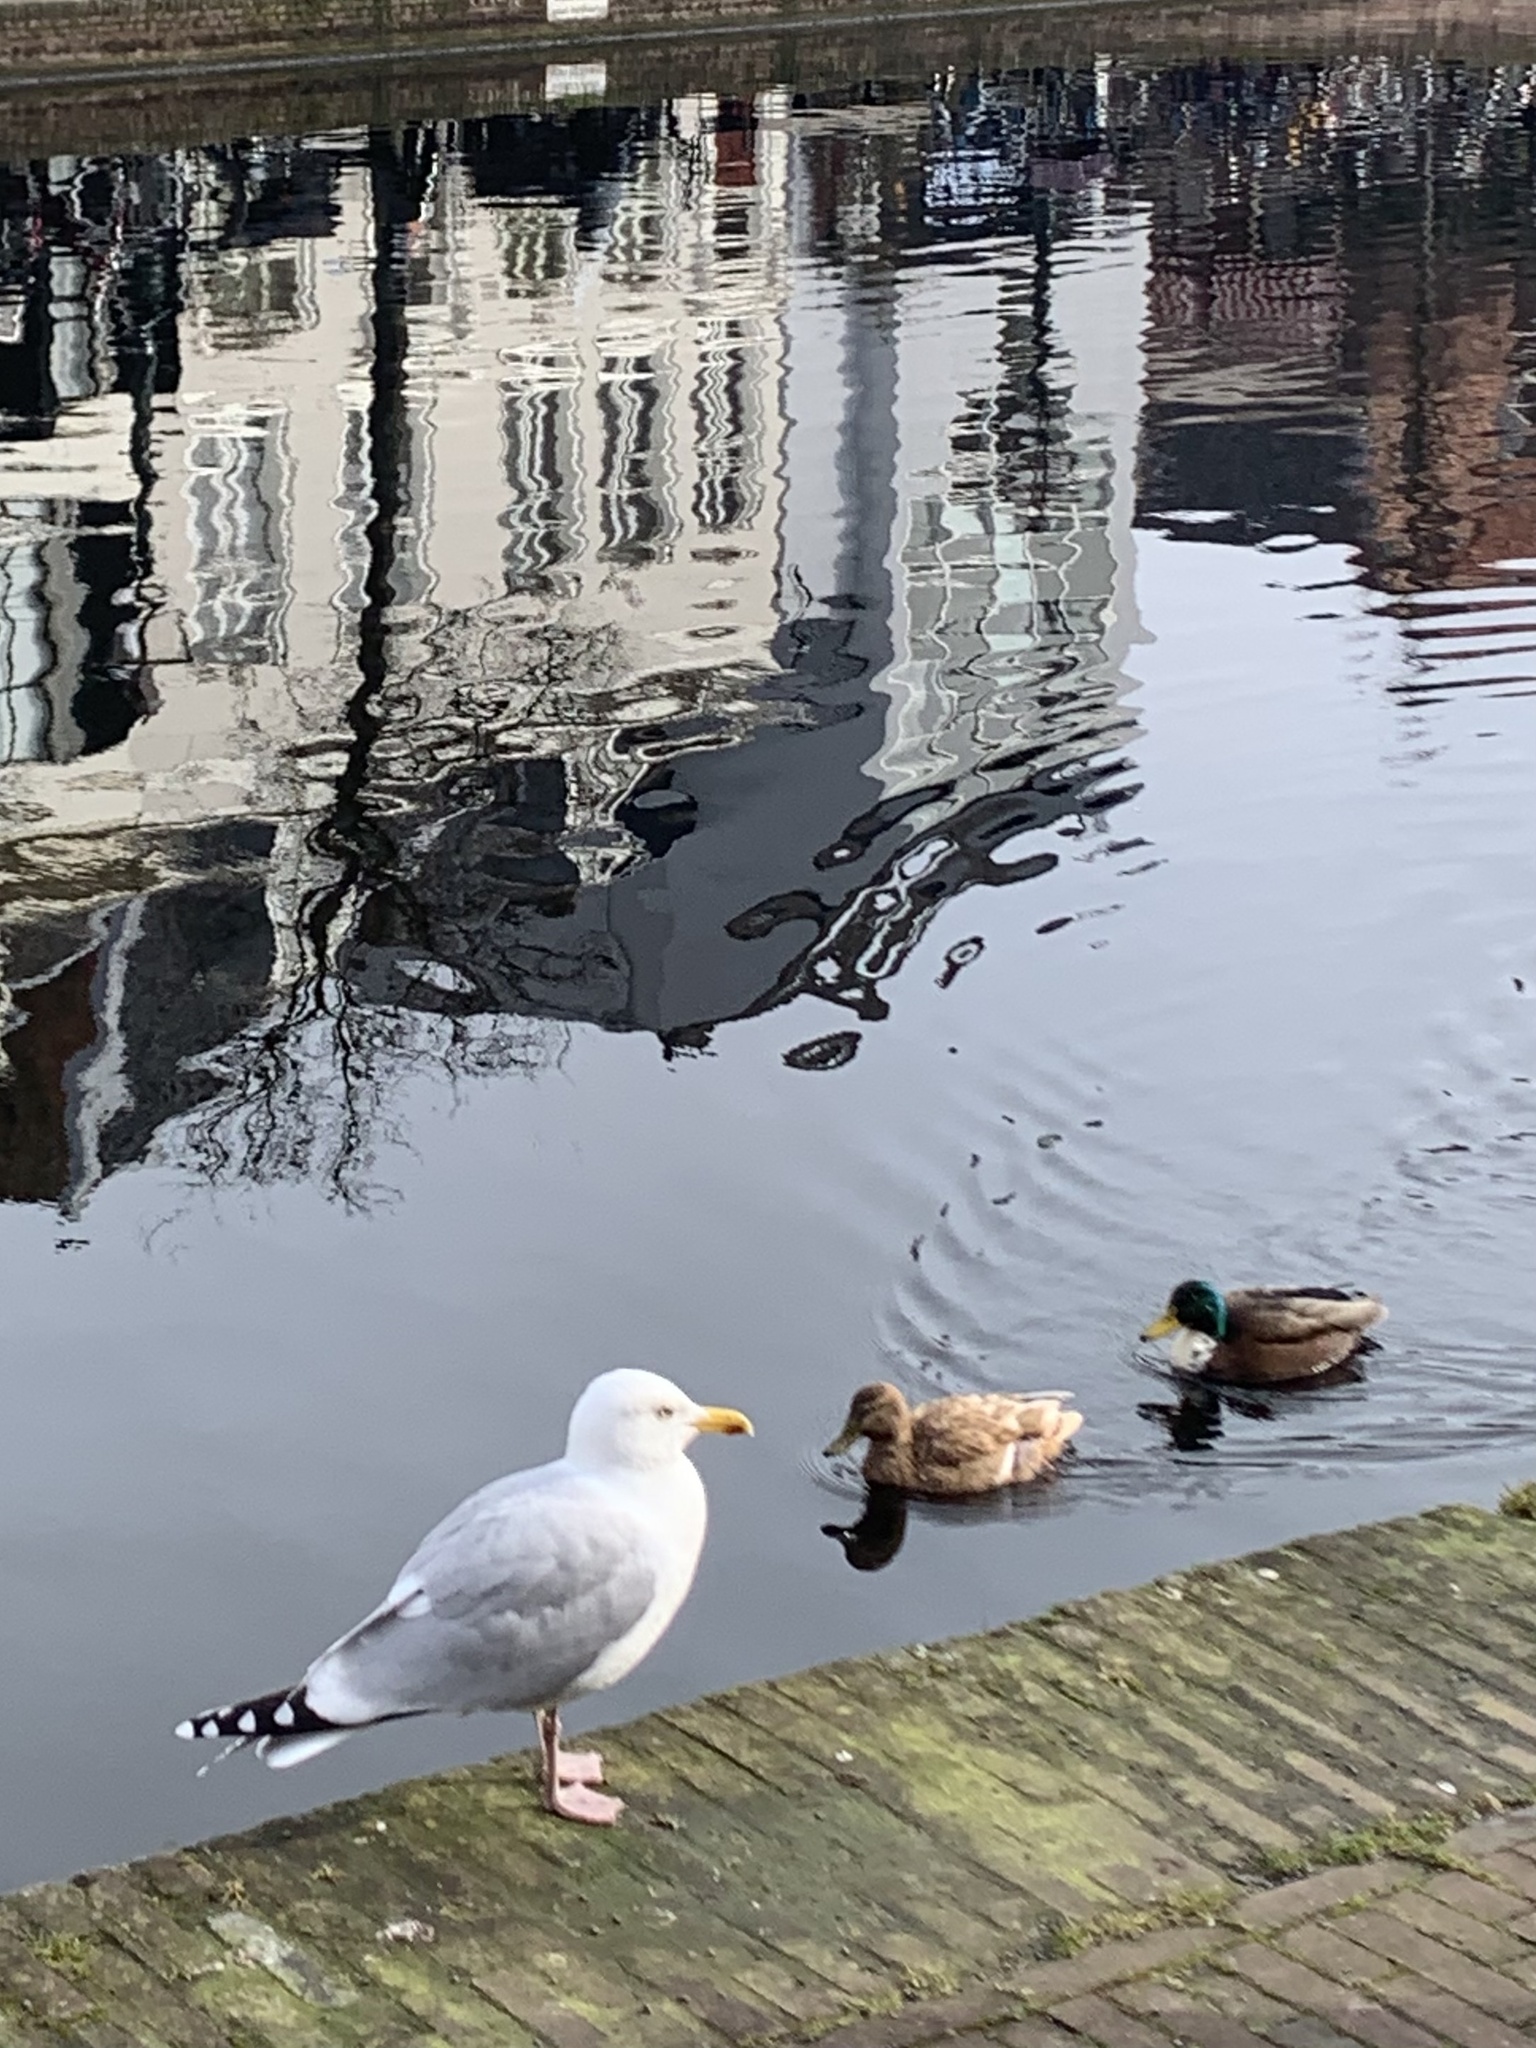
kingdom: Animalia
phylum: Chordata
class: Aves
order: Charadriiformes
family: Laridae
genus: Larus
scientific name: Larus argentatus
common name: Herring gull
